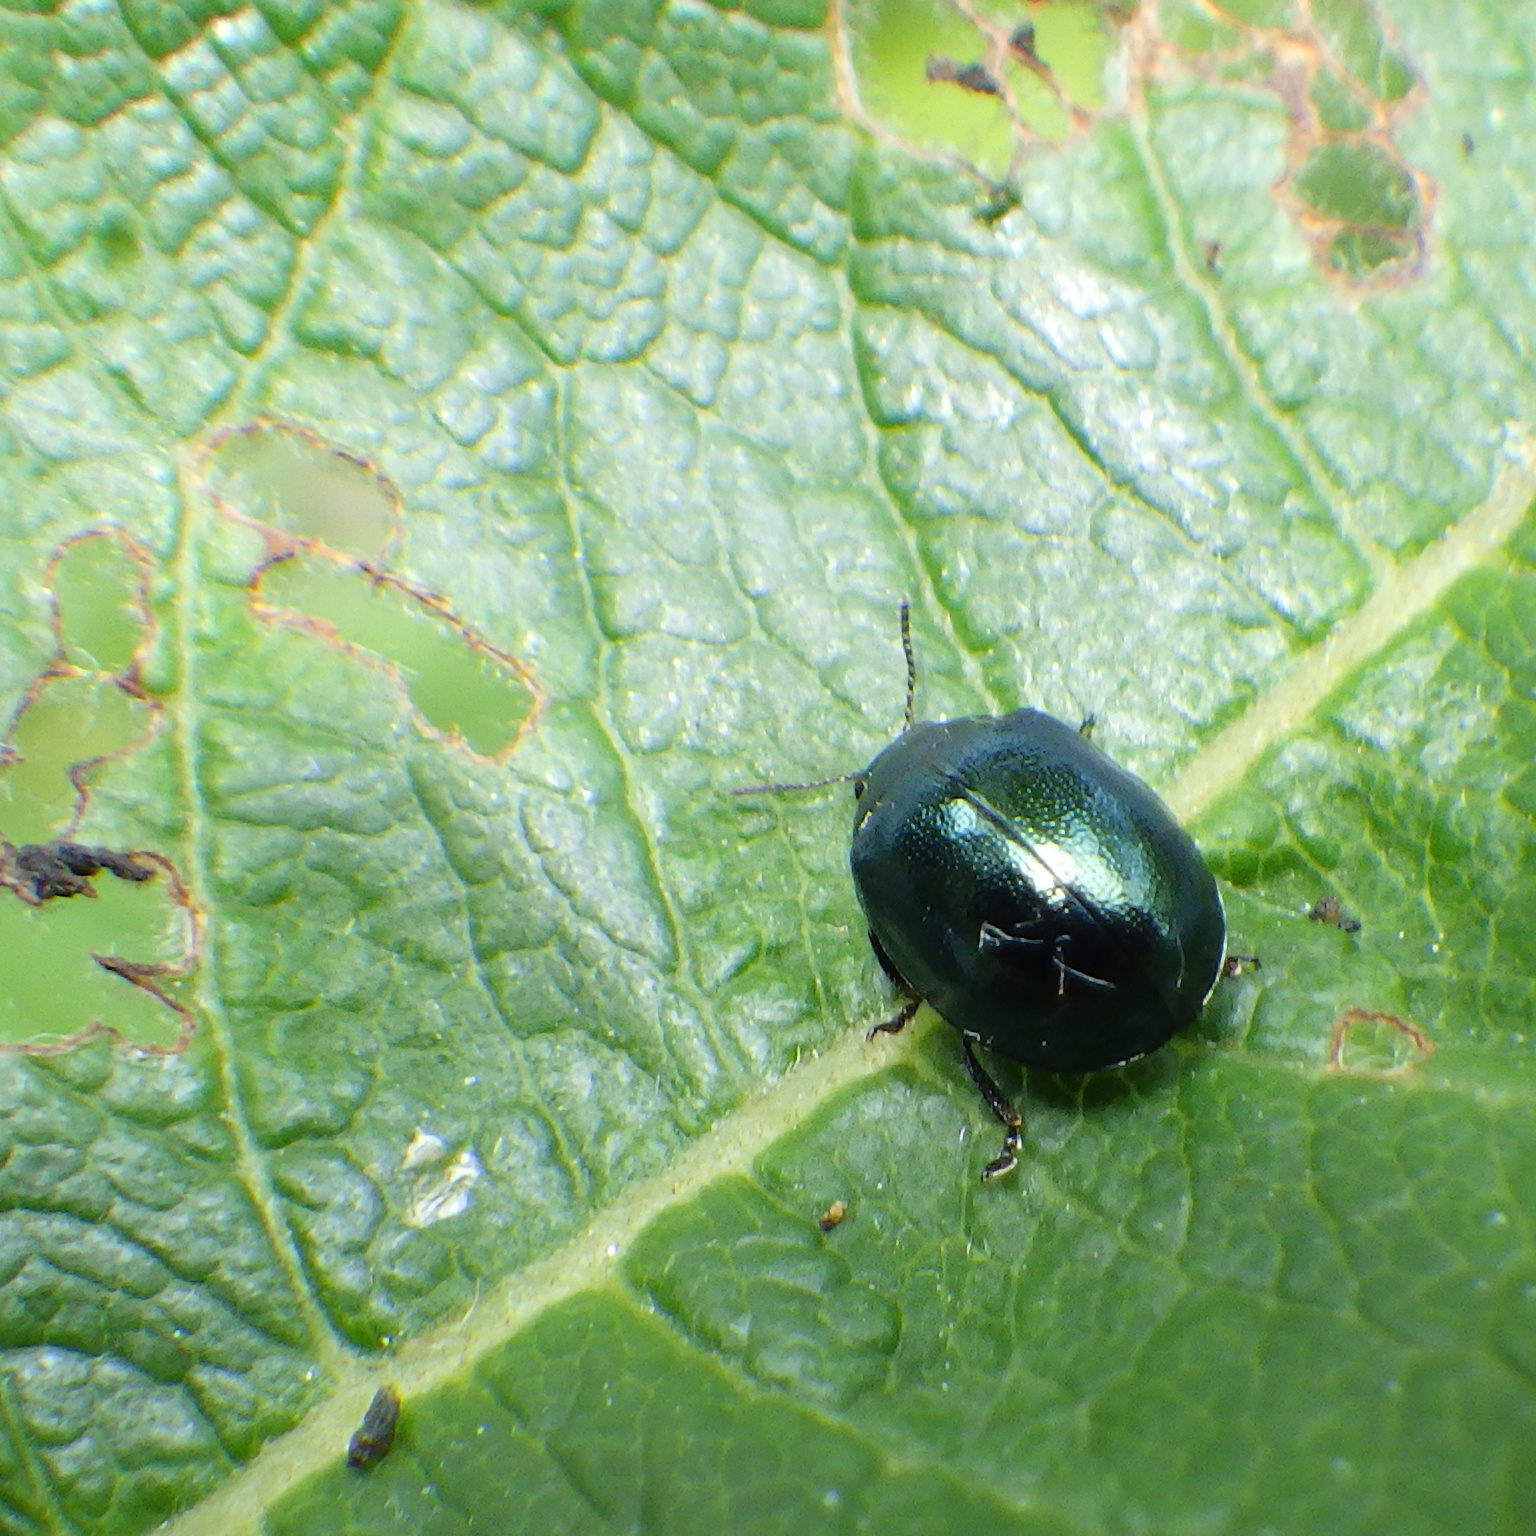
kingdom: Animalia
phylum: Arthropoda
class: Insecta
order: Coleoptera
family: Chrysomelidae
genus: Plagiodera
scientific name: Plagiodera versicolora
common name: Imported willow leaf beetle
